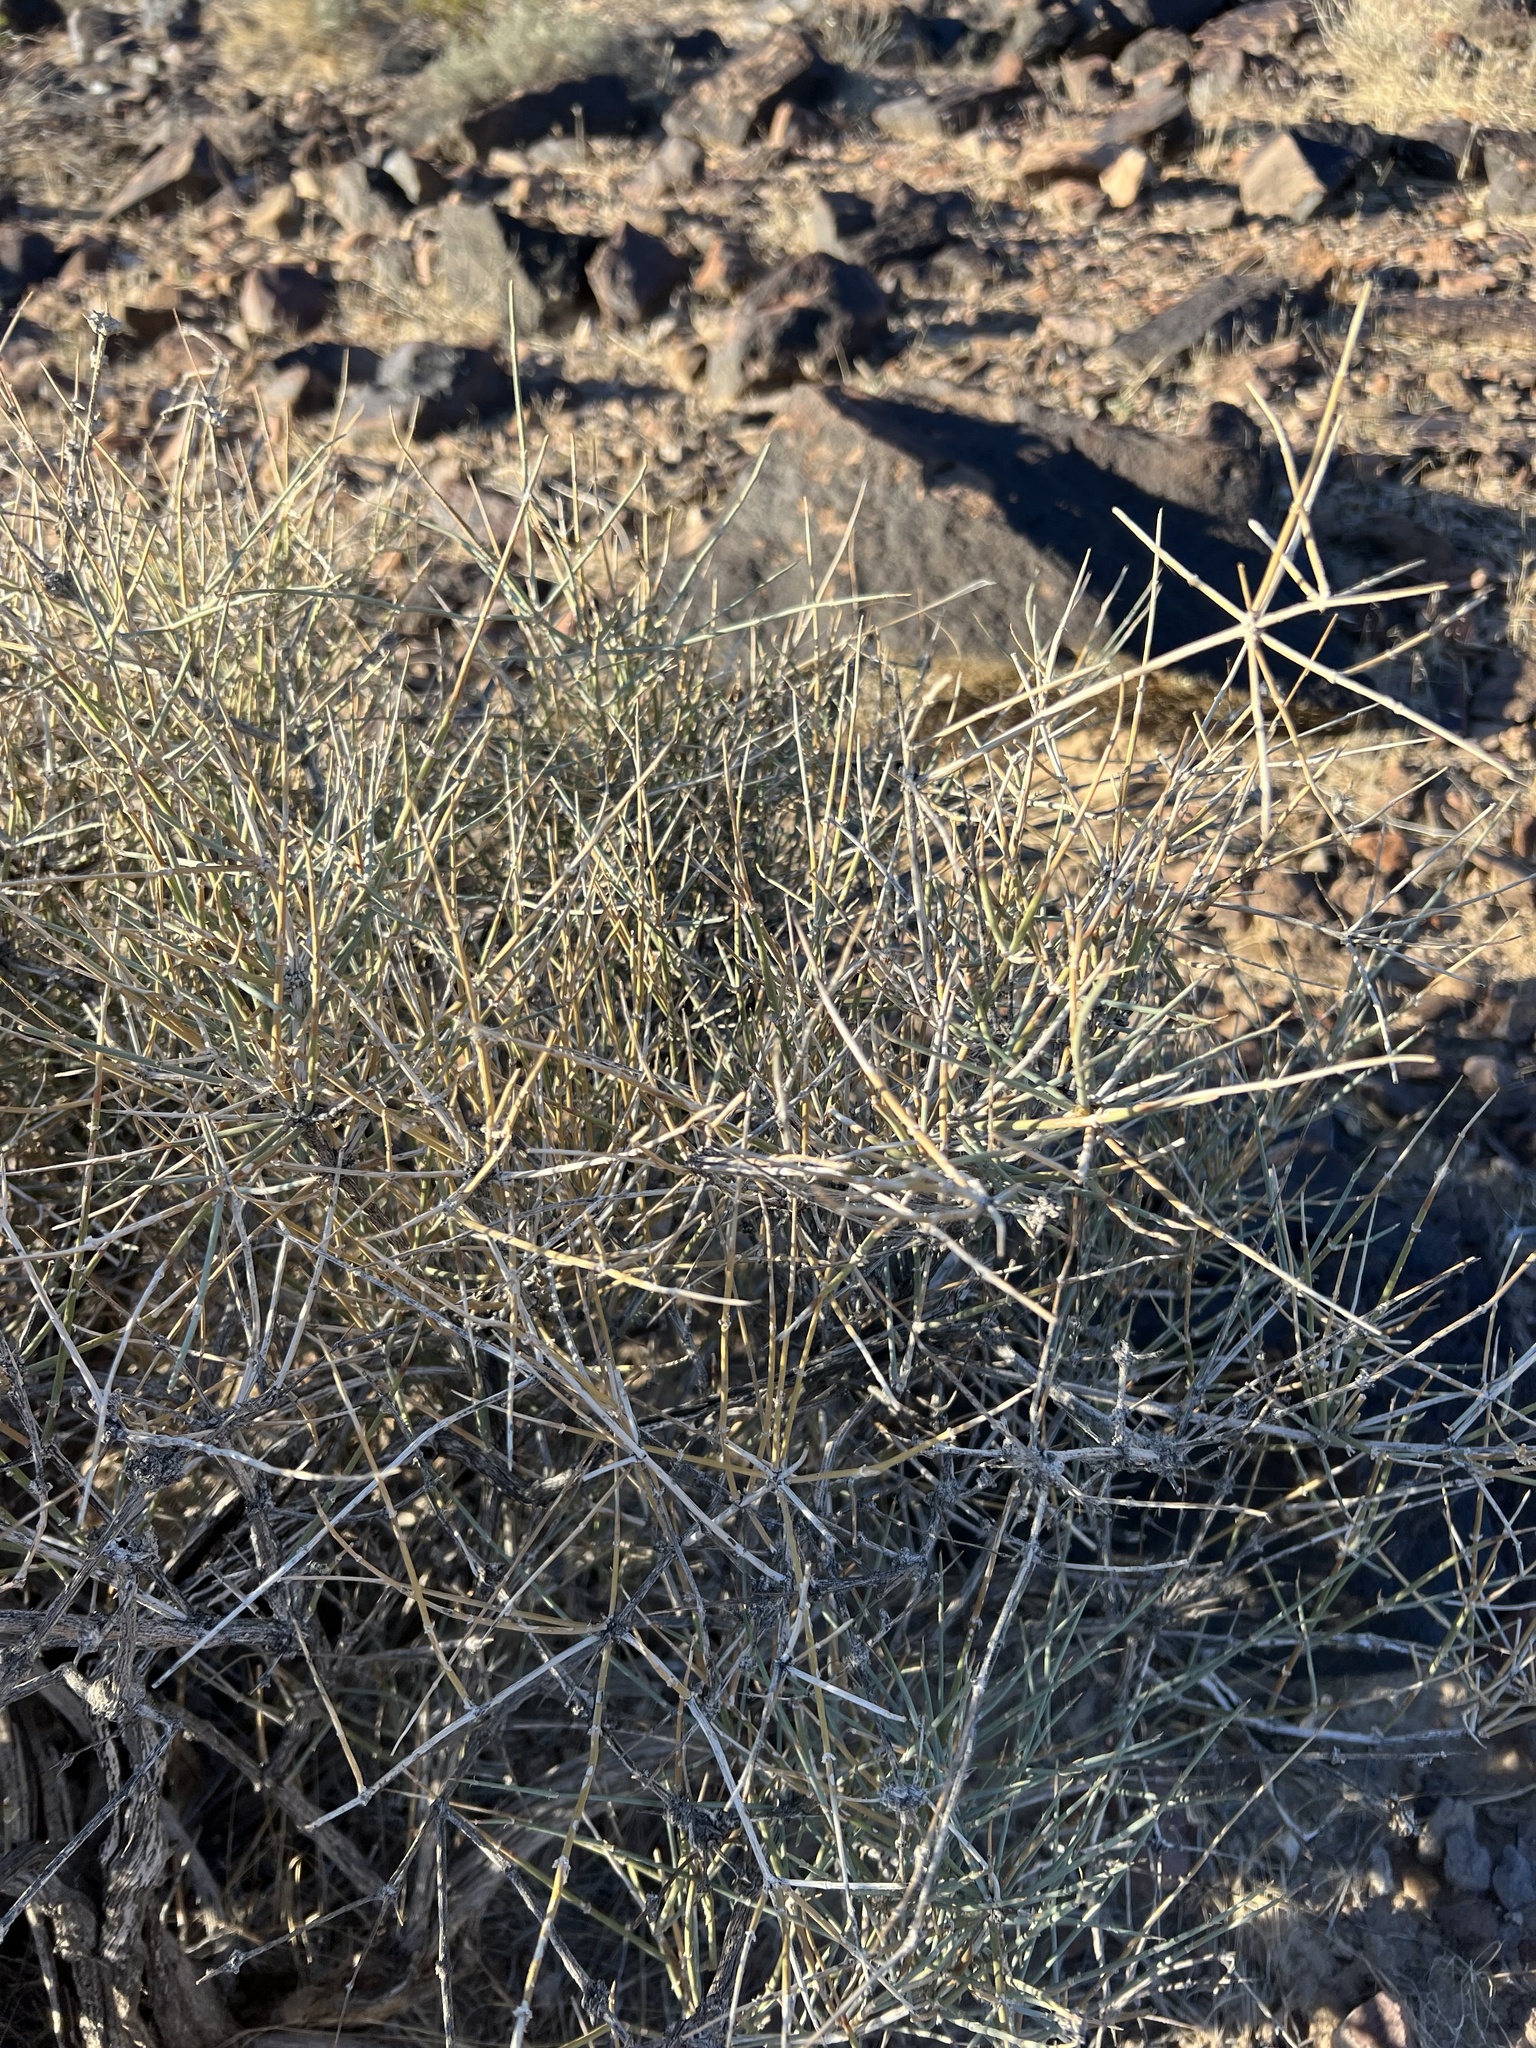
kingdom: Plantae
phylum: Tracheophyta
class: Gnetopsida
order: Ephedrales
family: Ephedraceae
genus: Ephedra
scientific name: Ephedra nevadensis
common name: Gray ephedra
